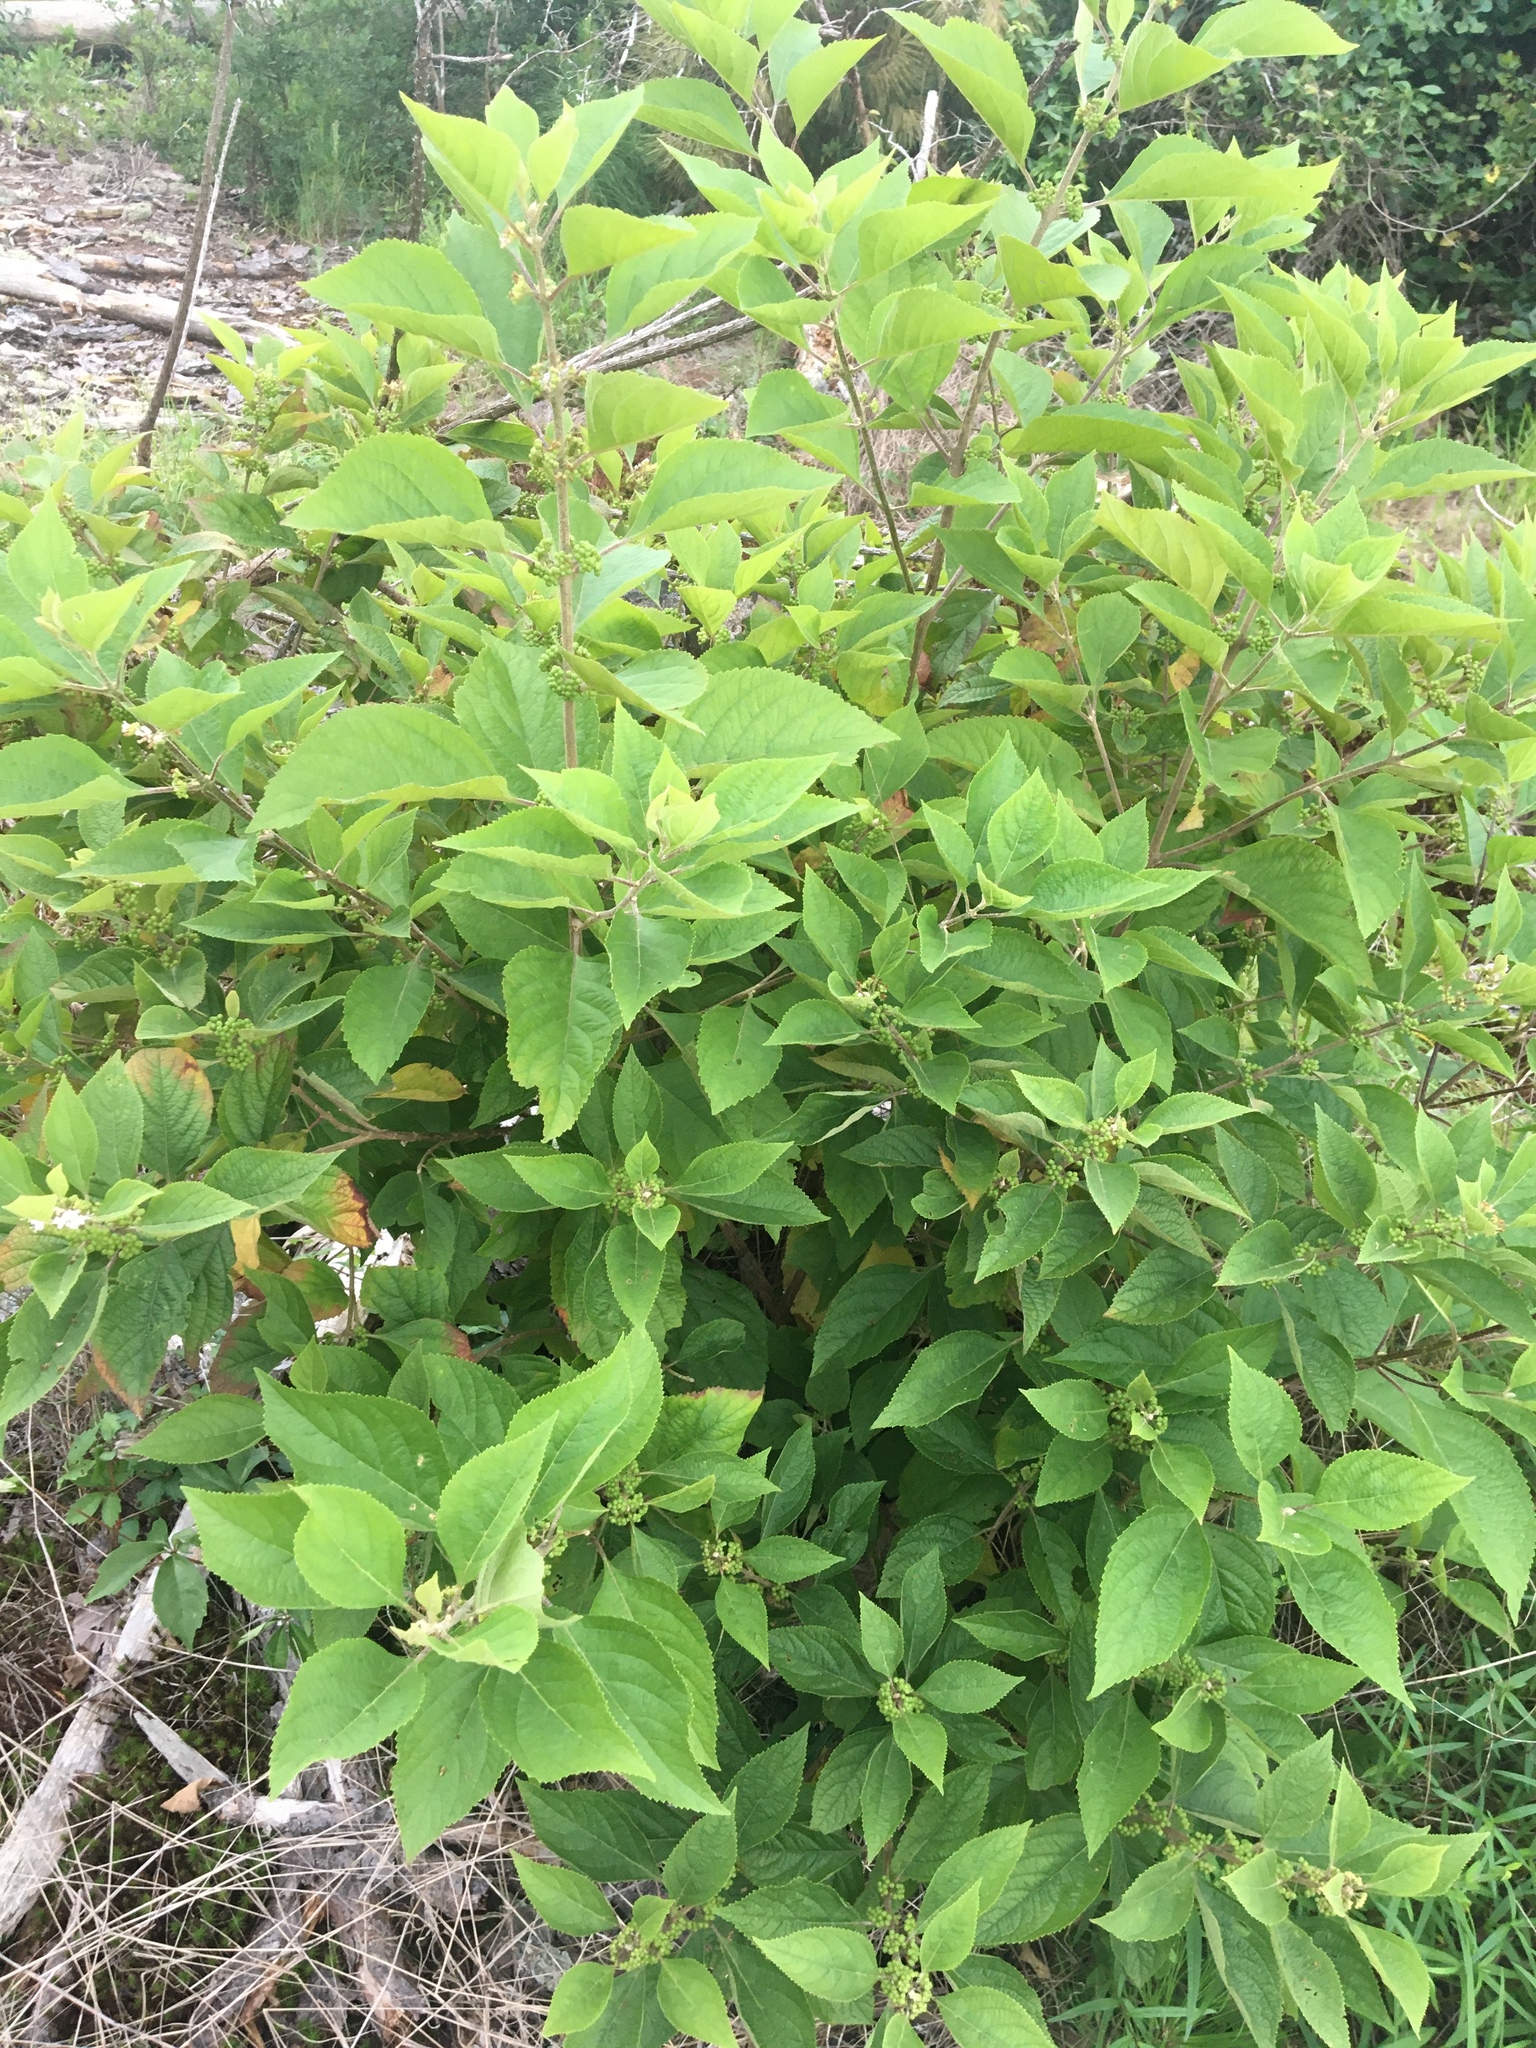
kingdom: Plantae
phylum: Tracheophyta
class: Magnoliopsida
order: Lamiales
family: Lamiaceae
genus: Callicarpa
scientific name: Callicarpa americana
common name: American beautyberry
